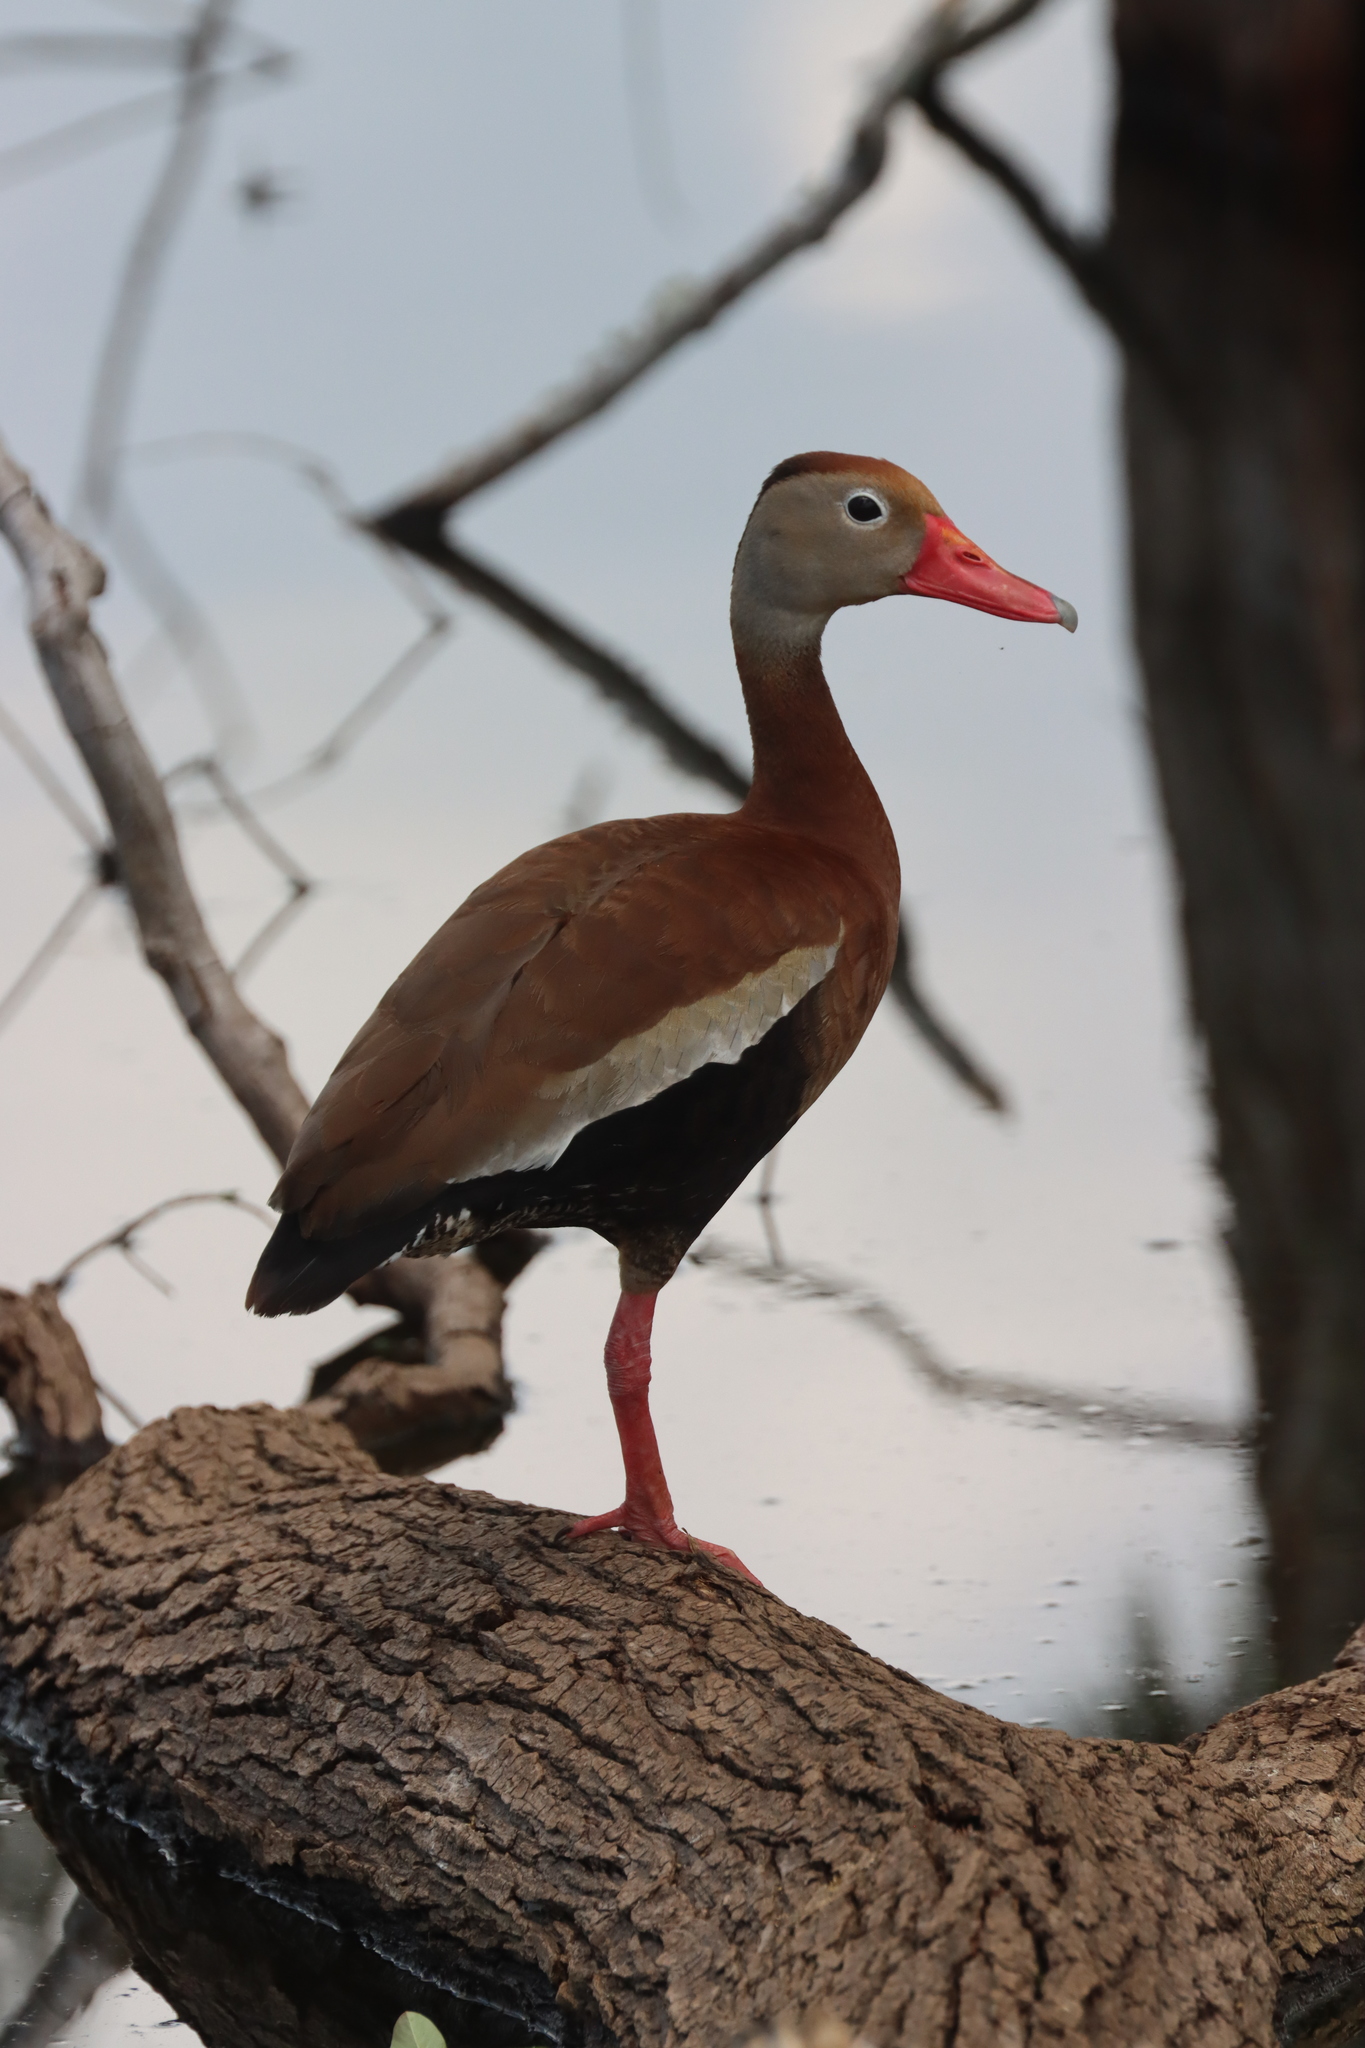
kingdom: Animalia
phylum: Chordata
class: Aves
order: Anseriformes
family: Anatidae
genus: Dendrocygna
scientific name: Dendrocygna autumnalis
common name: Black-bellied whistling duck
